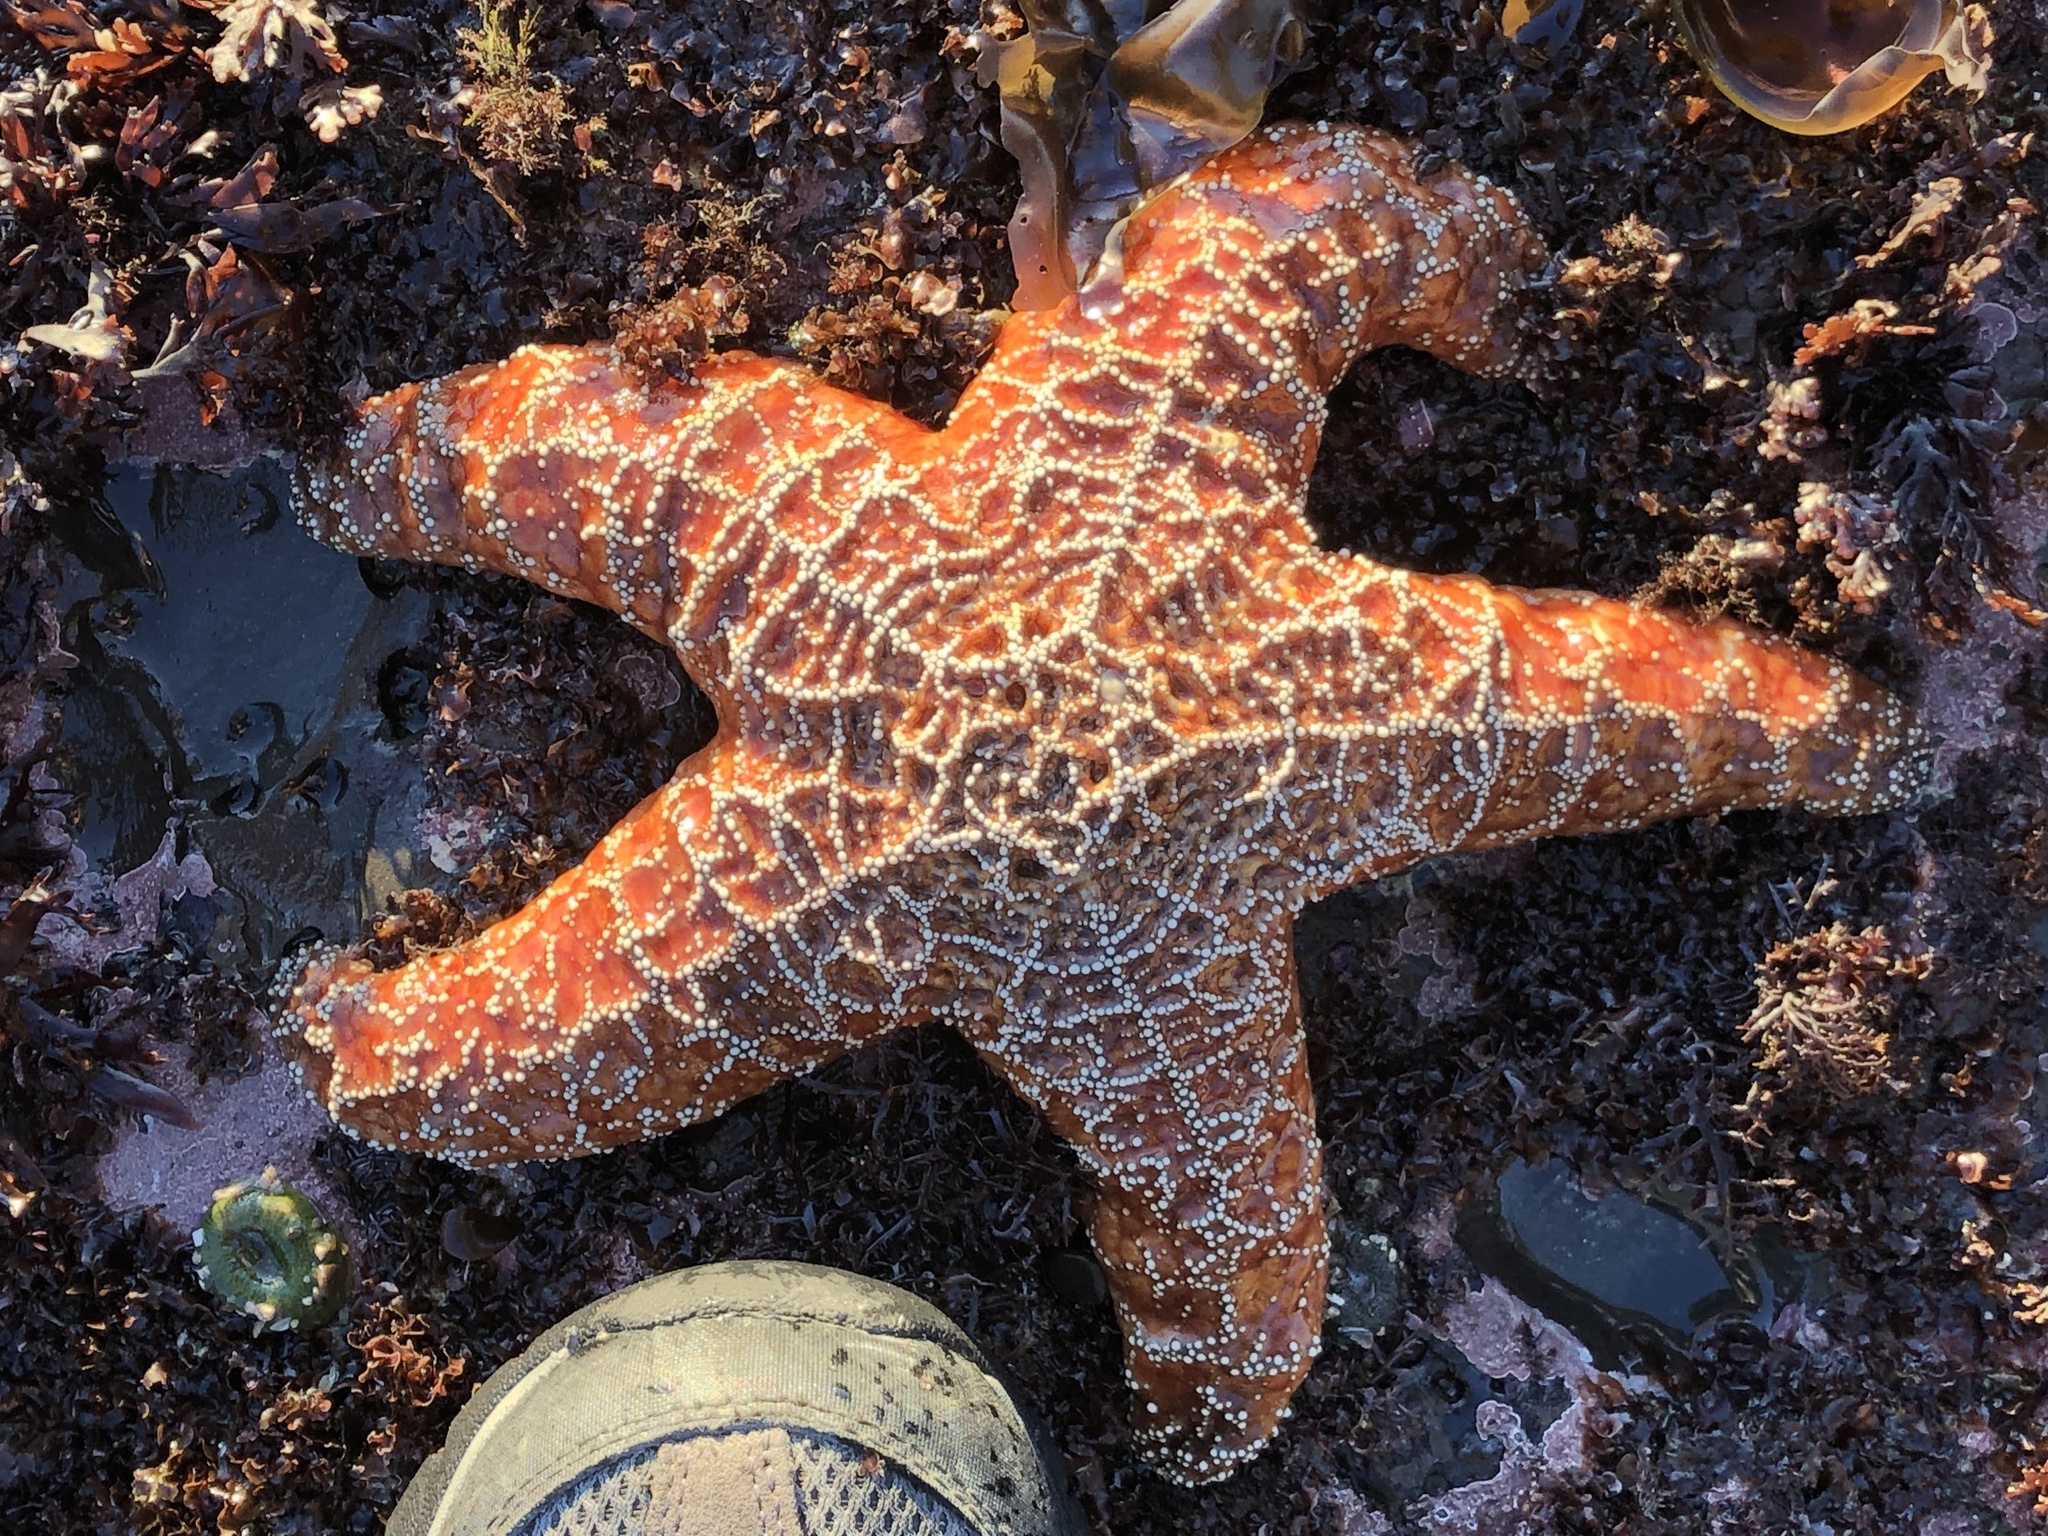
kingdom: Animalia
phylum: Echinodermata
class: Asteroidea
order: Forcipulatida
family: Asteriidae
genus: Pisaster
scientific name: Pisaster ochraceus
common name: Ochre stars
